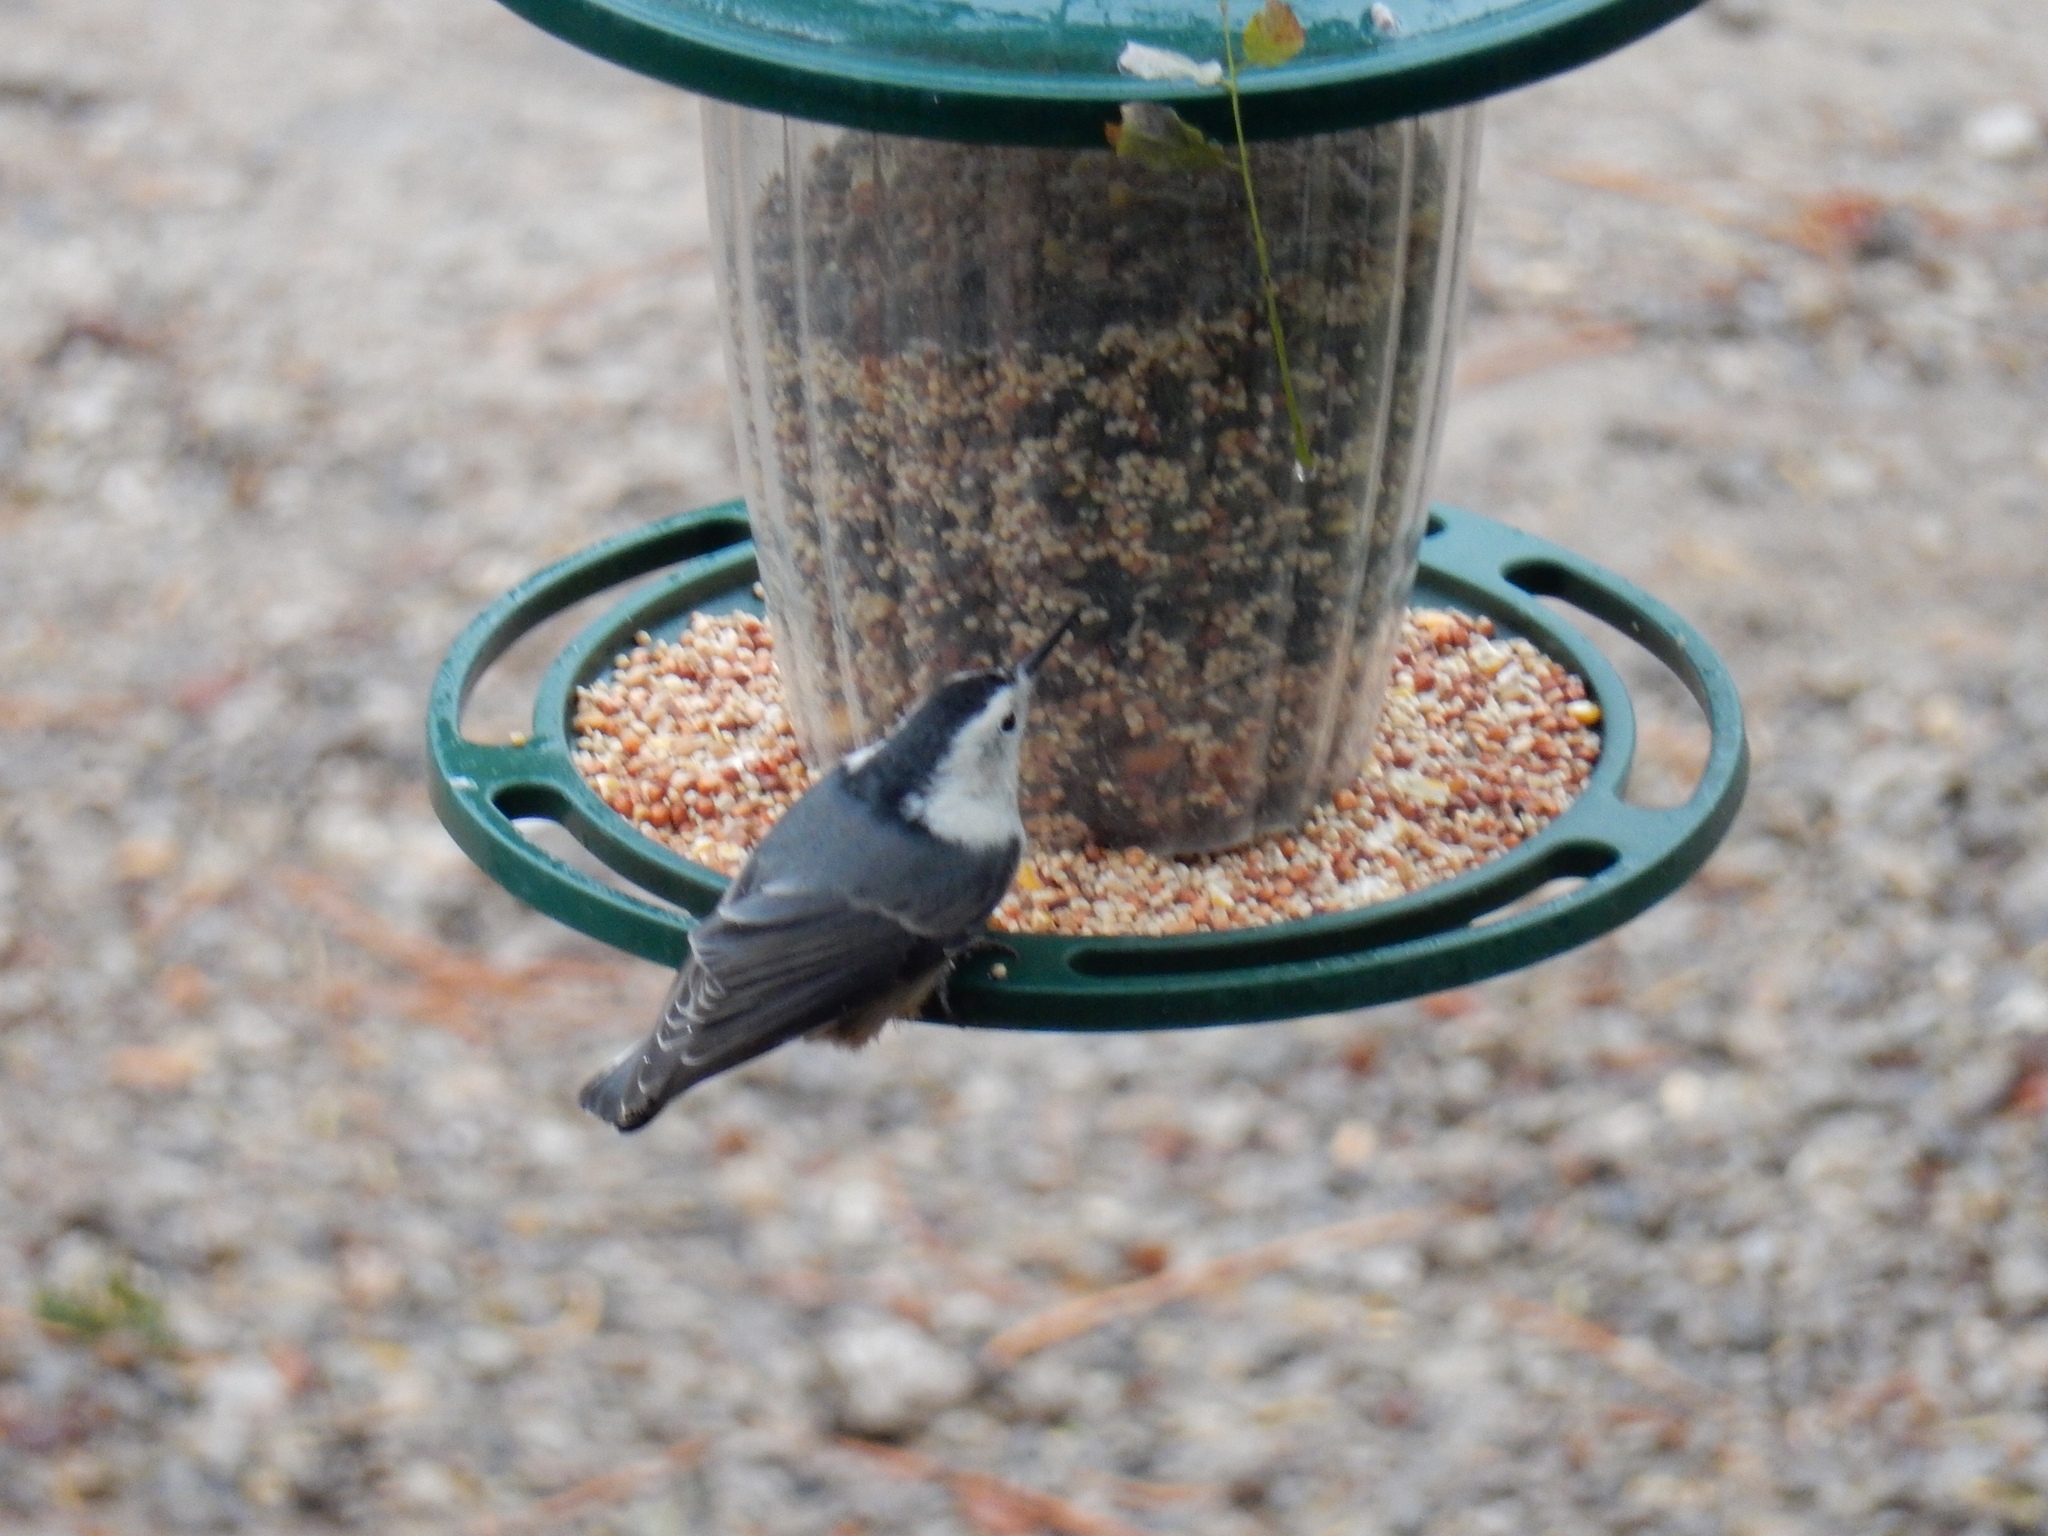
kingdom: Animalia
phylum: Chordata
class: Aves
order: Passeriformes
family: Sittidae
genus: Sitta
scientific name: Sitta carolinensis
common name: White-breasted nuthatch
